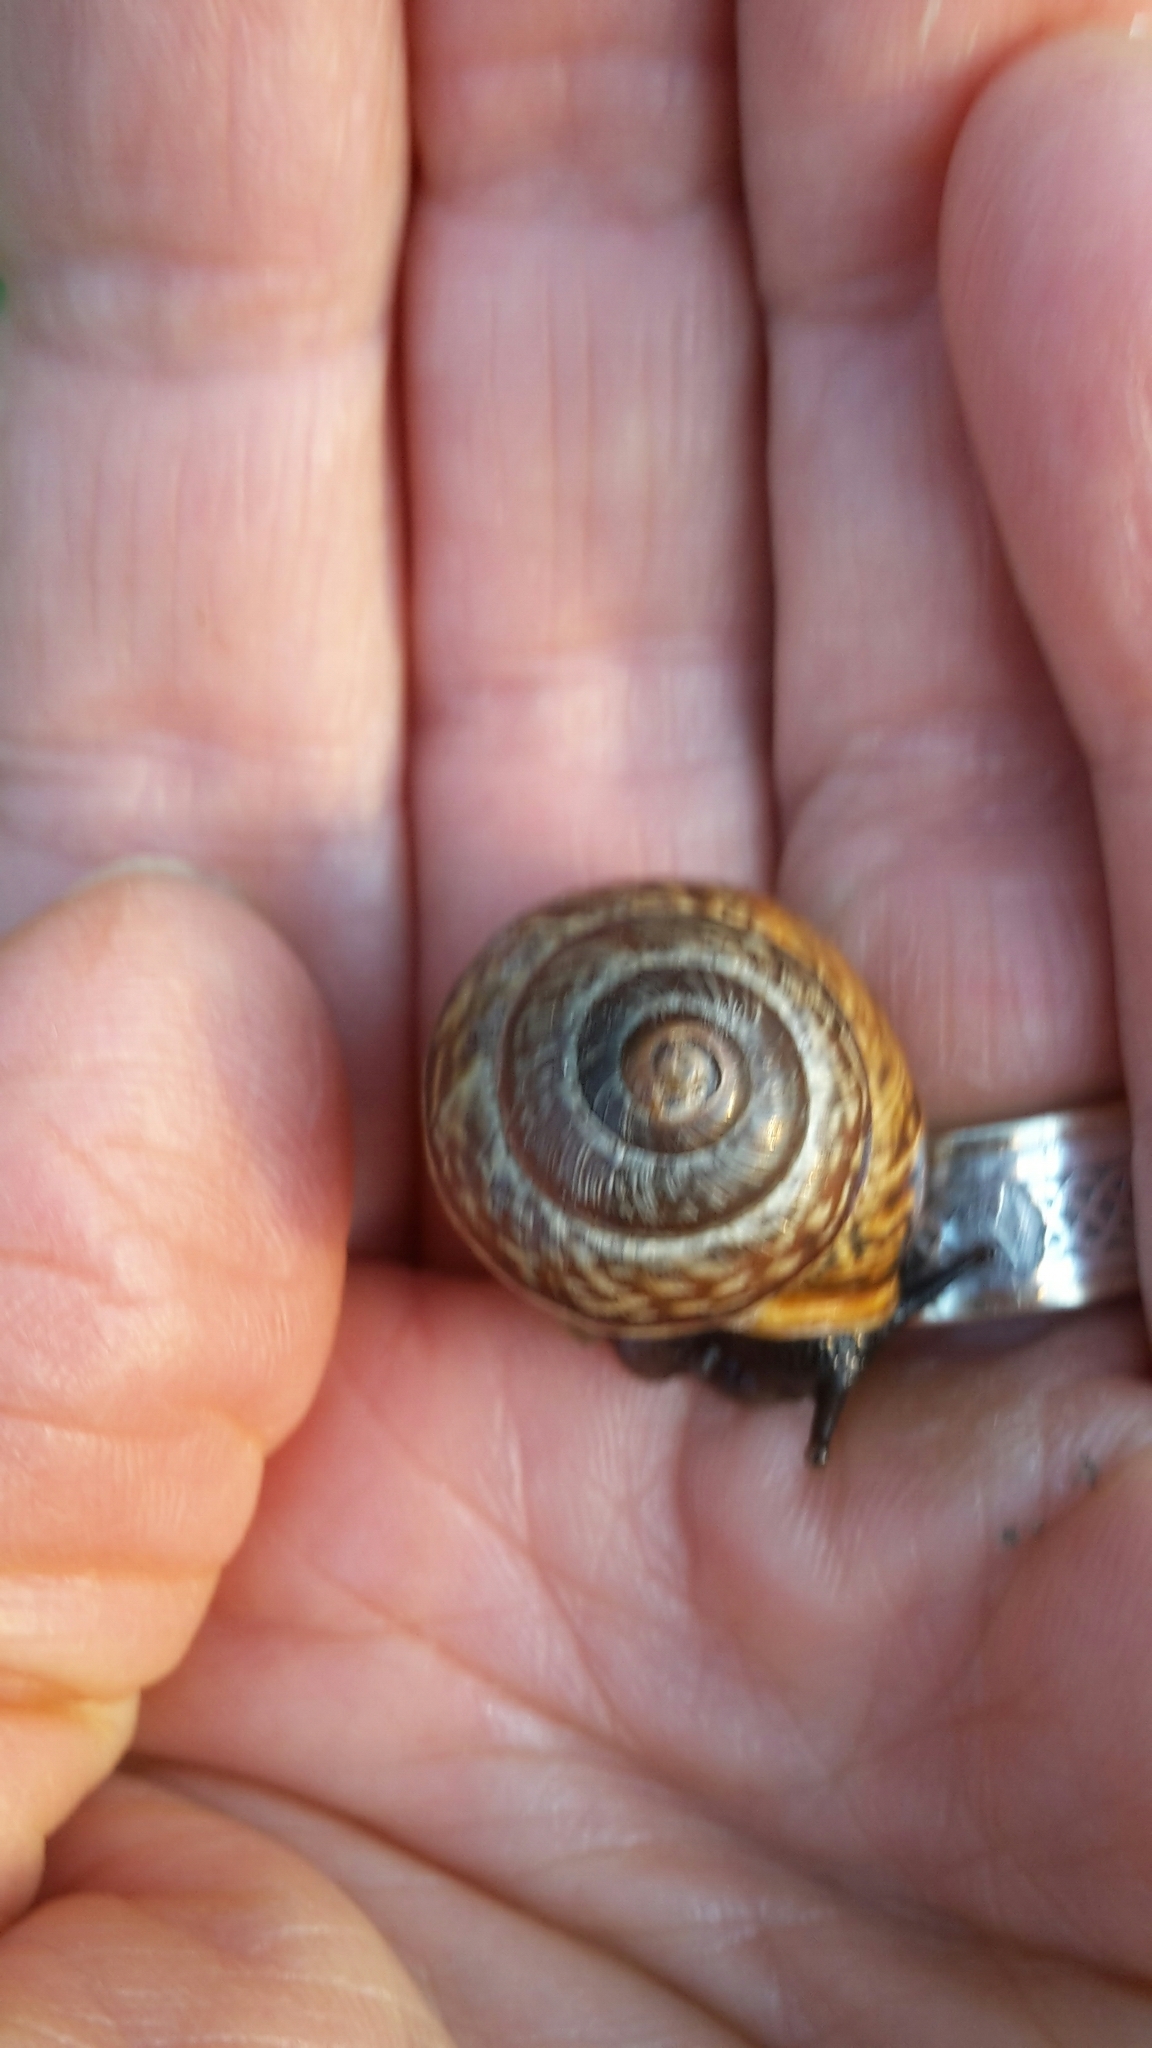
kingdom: Animalia
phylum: Mollusca
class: Gastropoda
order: Stylommatophora
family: Helicidae
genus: Arianta
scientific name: Arianta arbustorum
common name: Copse snail
